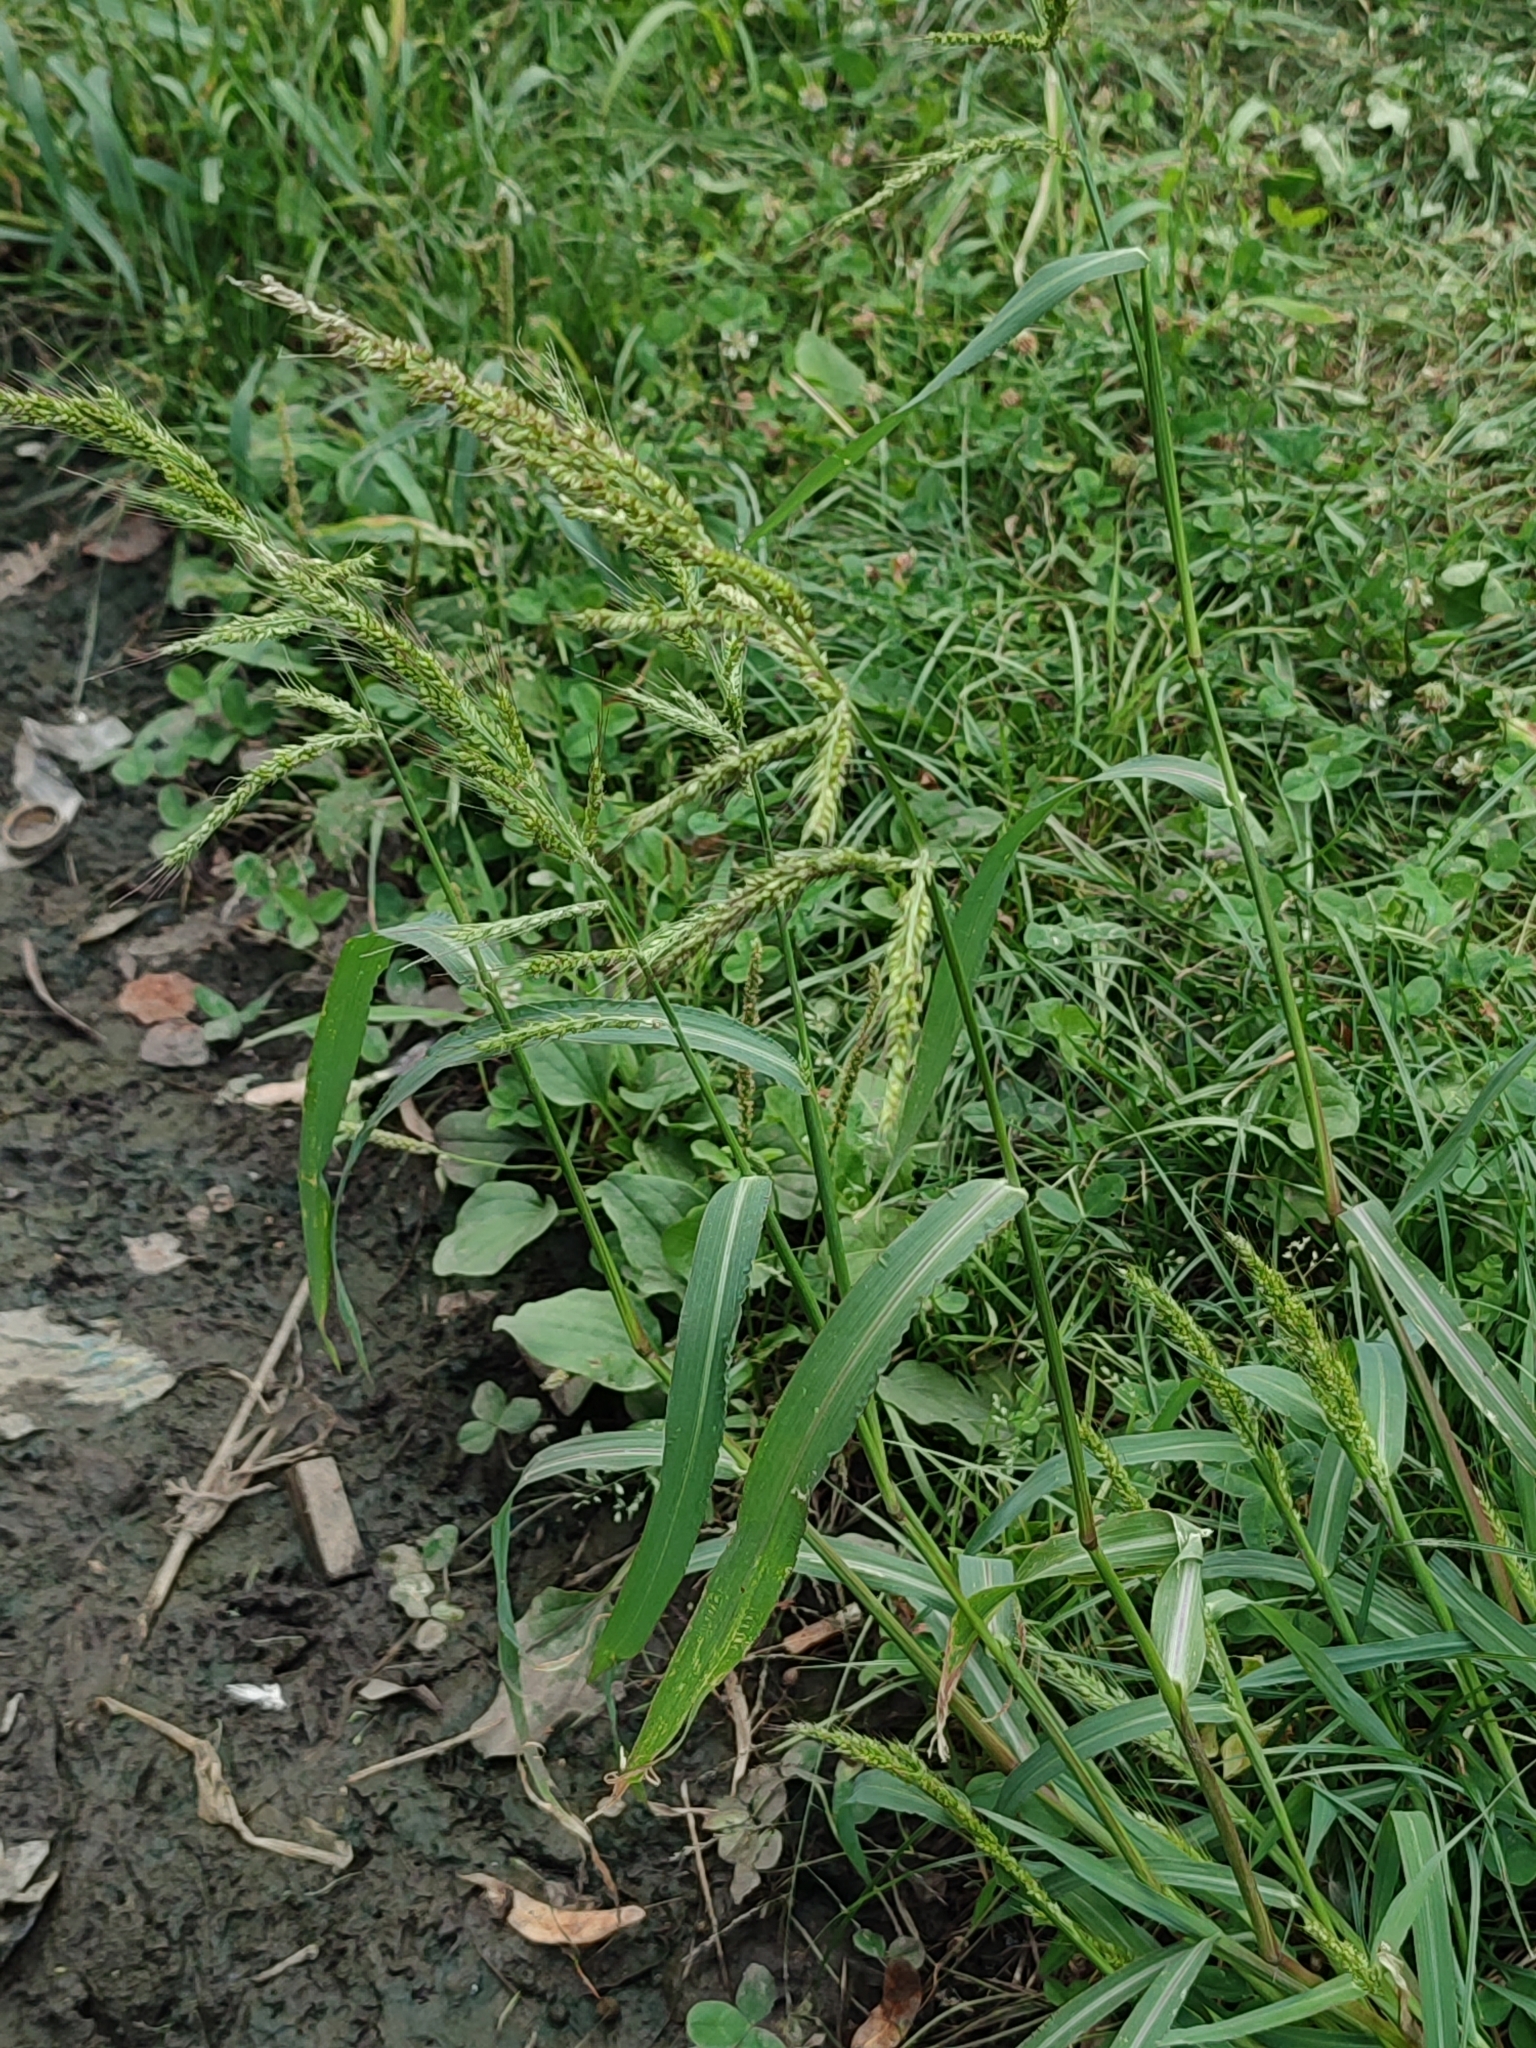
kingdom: Plantae
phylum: Tracheophyta
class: Liliopsida
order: Poales
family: Poaceae
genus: Echinochloa
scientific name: Echinochloa crus-galli
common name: Cockspur
